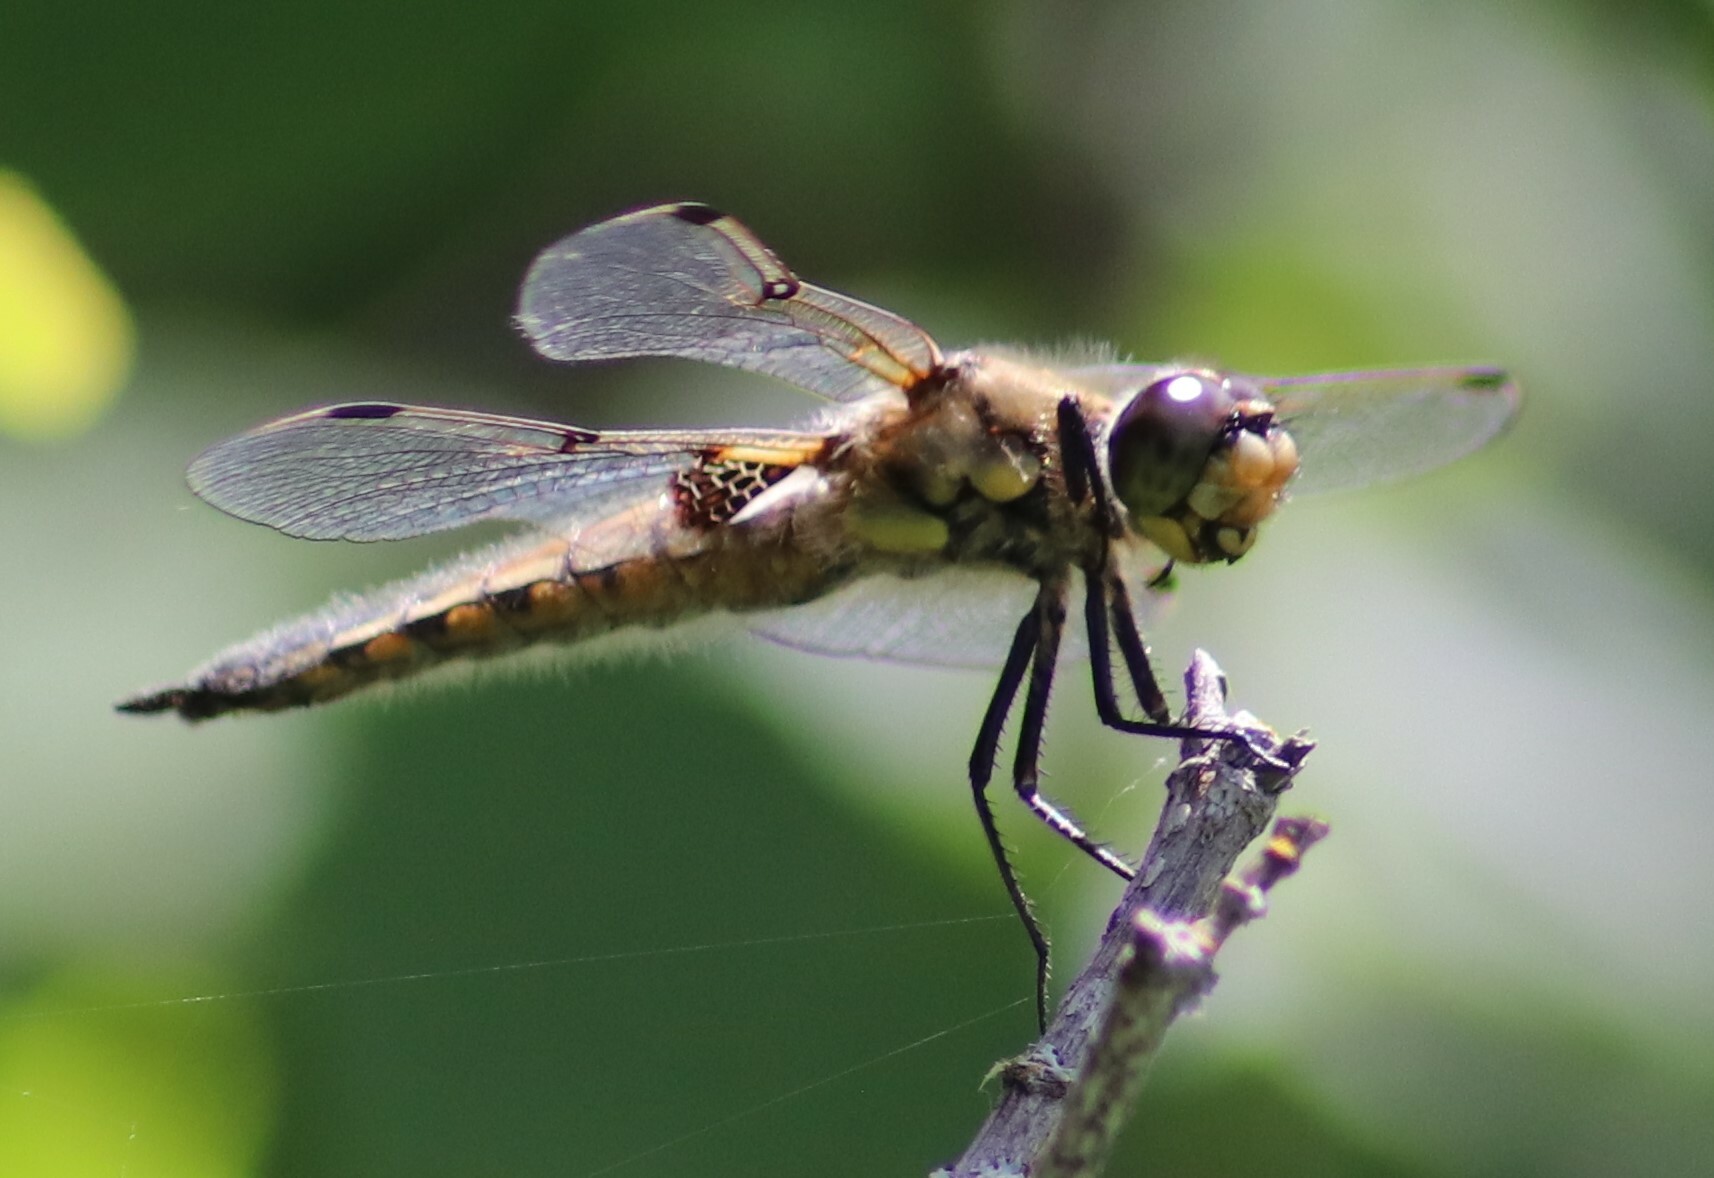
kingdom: Animalia
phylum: Arthropoda
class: Insecta
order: Odonata
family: Libellulidae
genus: Libellula
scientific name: Libellula quadrimaculata
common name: Four-spotted chaser
